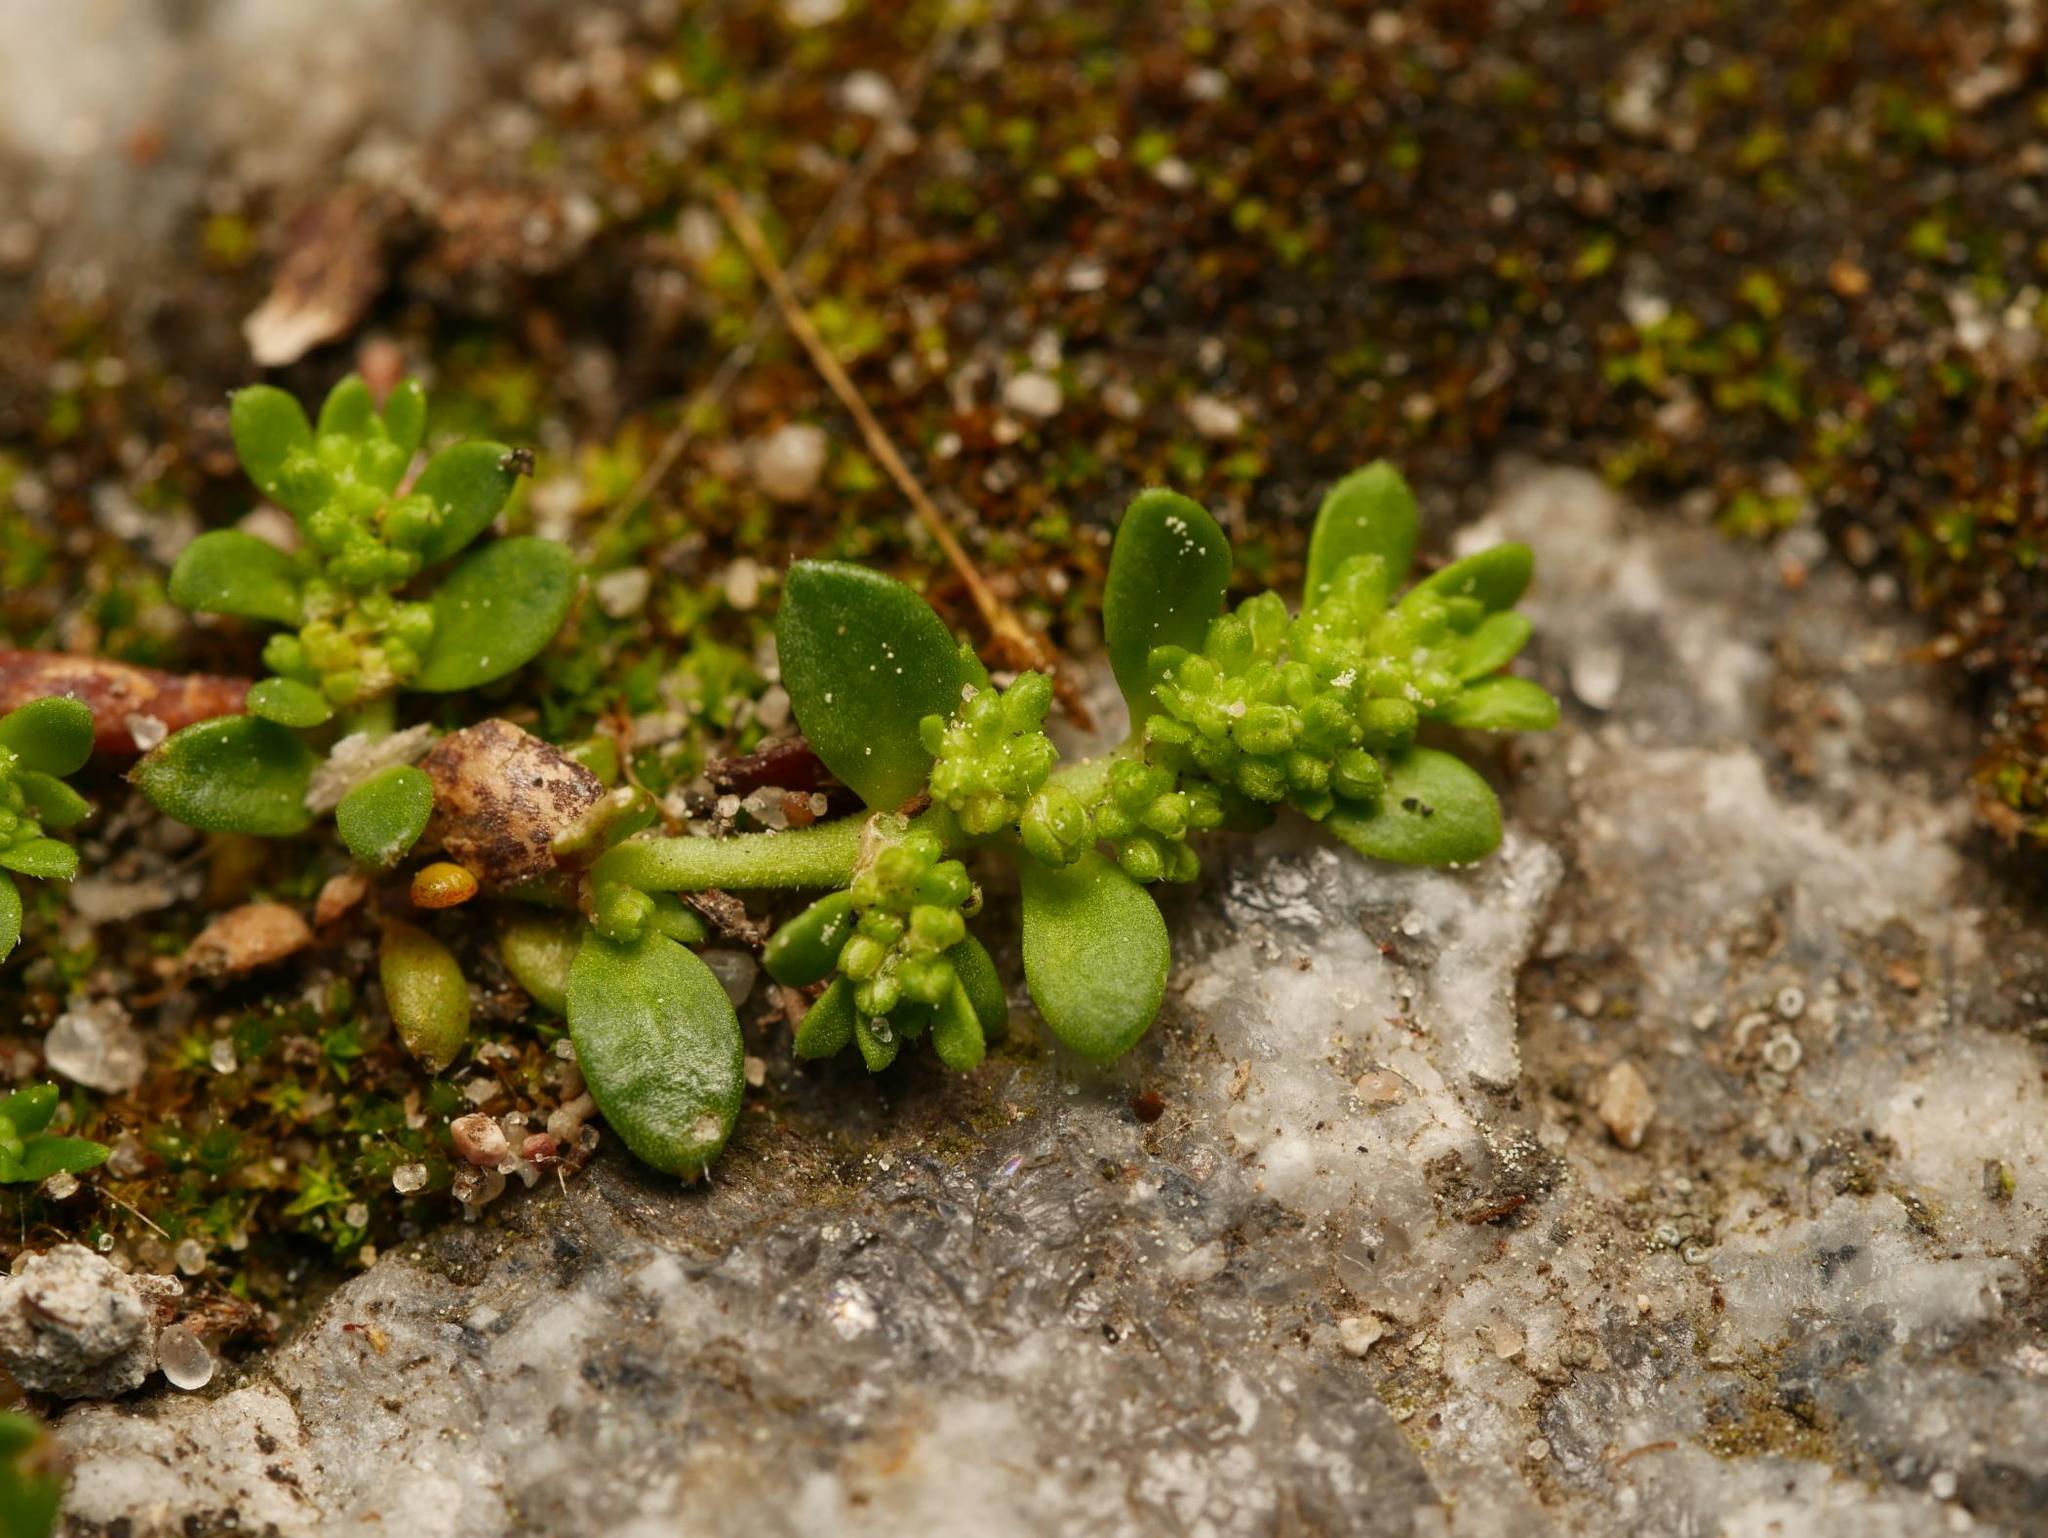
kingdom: Plantae
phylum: Tracheophyta
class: Magnoliopsida
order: Caryophyllales
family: Caryophyllaceae
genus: Herniaria
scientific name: Herniaria glabra
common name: Smooth rupturewort
